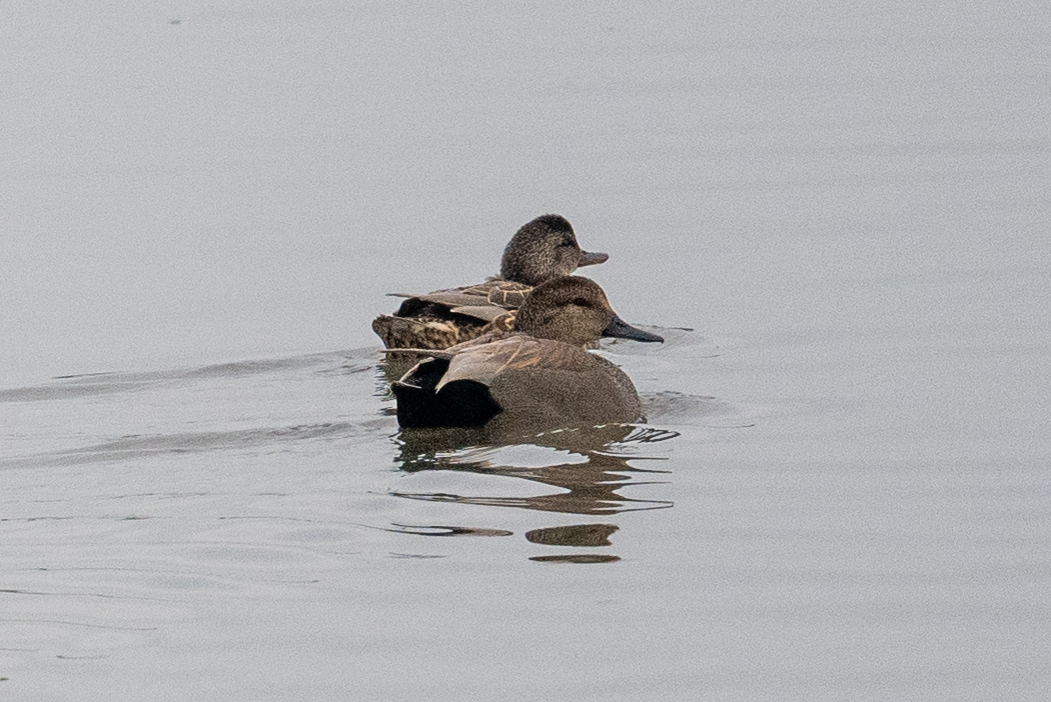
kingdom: Animalia
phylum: Chordata
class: Aves
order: Anseriformes
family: Anatidae
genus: Mareca
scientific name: Mareca strepera
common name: Gadwall
